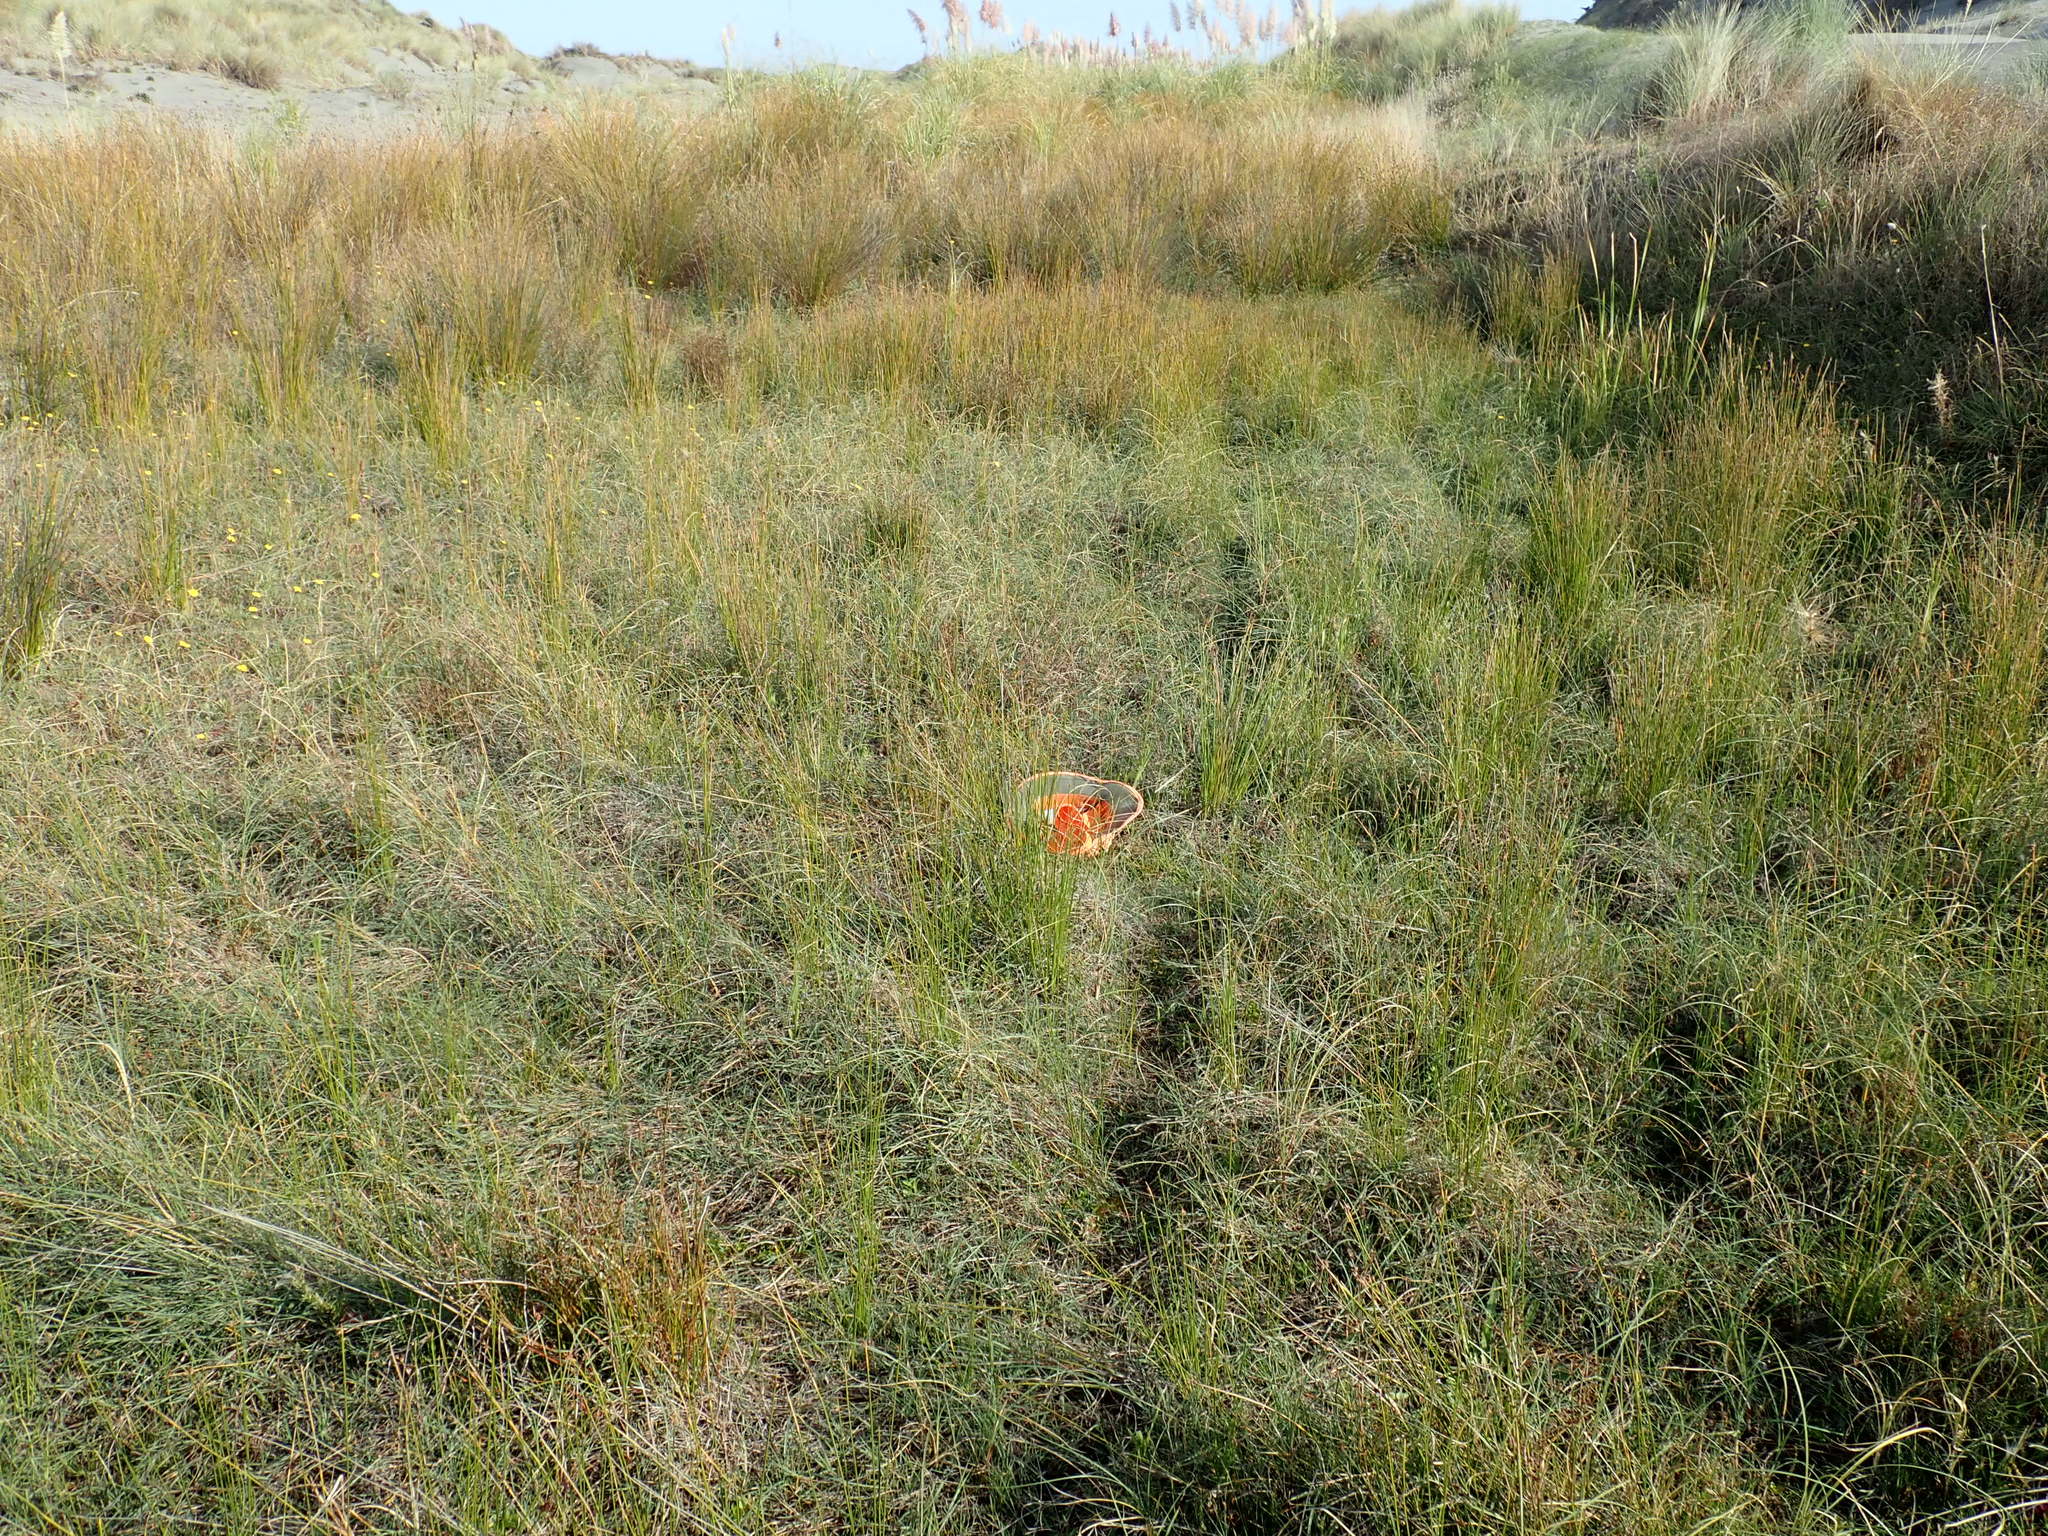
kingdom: Animalia
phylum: Mollusca
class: Gastropoda
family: Physidae
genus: Physella
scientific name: Physella acuta
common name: European physa
